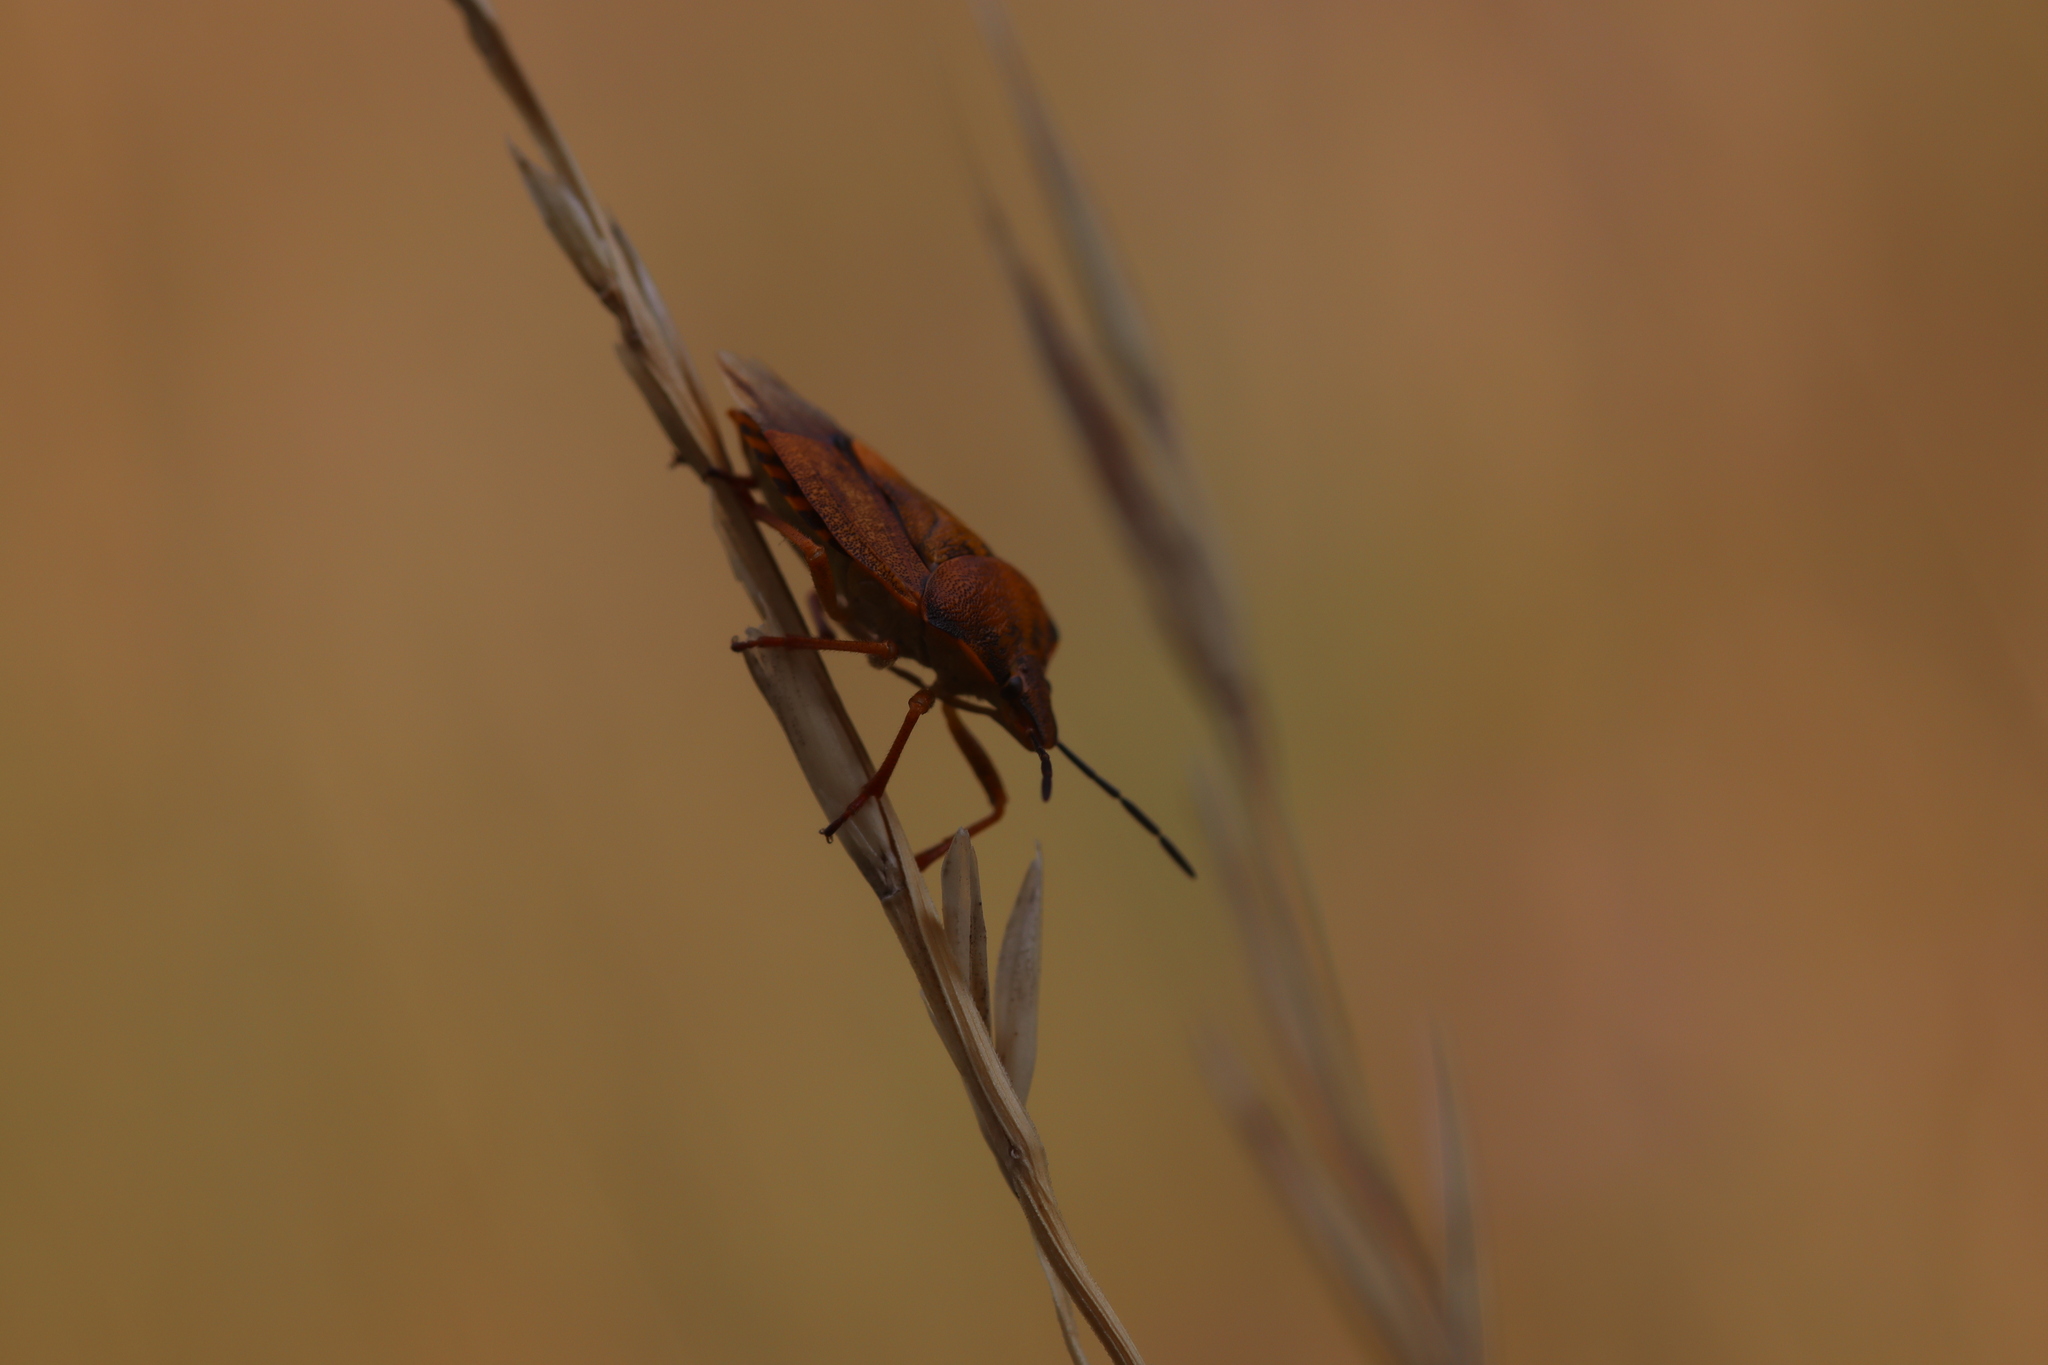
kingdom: Animalia
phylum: Arthropoda
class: Insecta
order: Hemiptera
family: Pentatomidae
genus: Carpocoris
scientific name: Carpocoris purpureipennis
